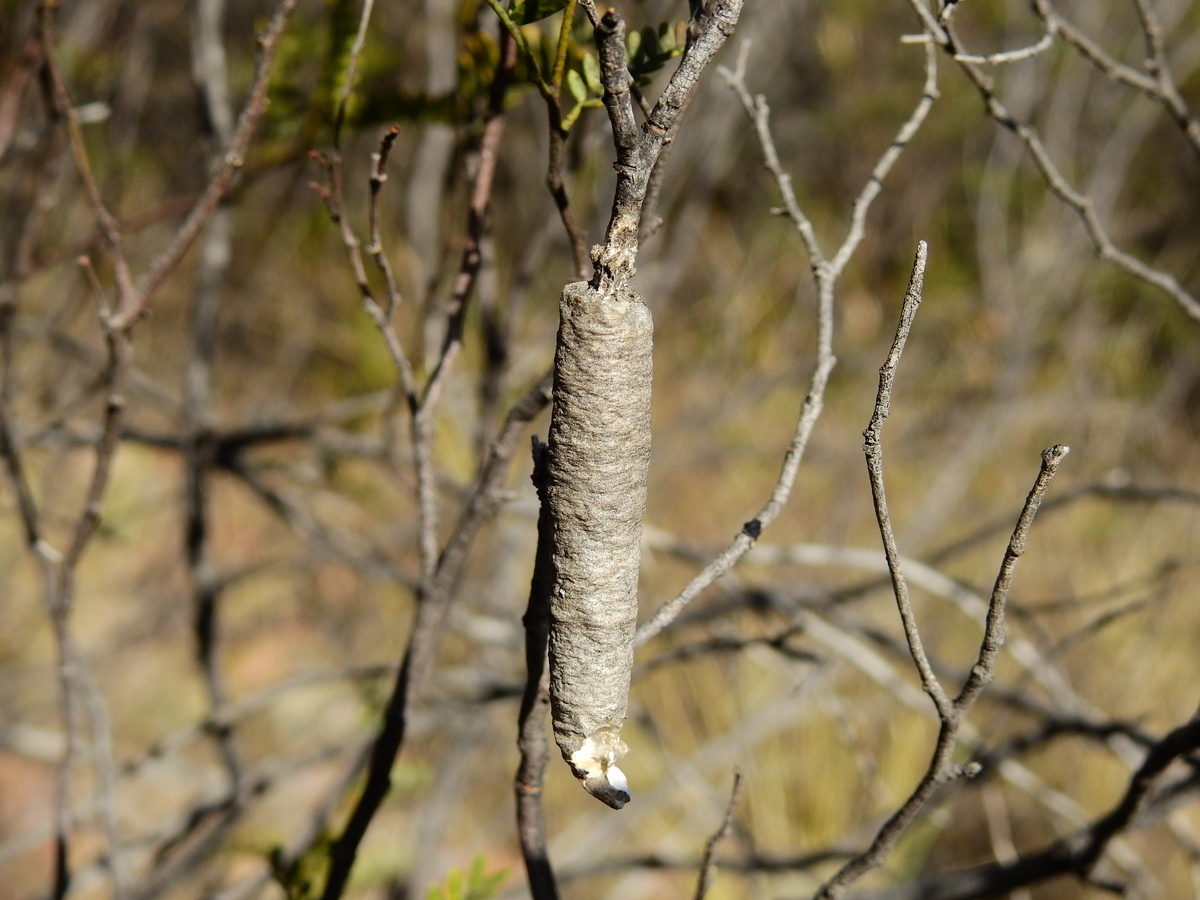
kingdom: Animalia
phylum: Arthropoda
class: Insecta
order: Lepidoptera
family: Psychidae
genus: Oiketicus
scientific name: Oiketicus geyeri
